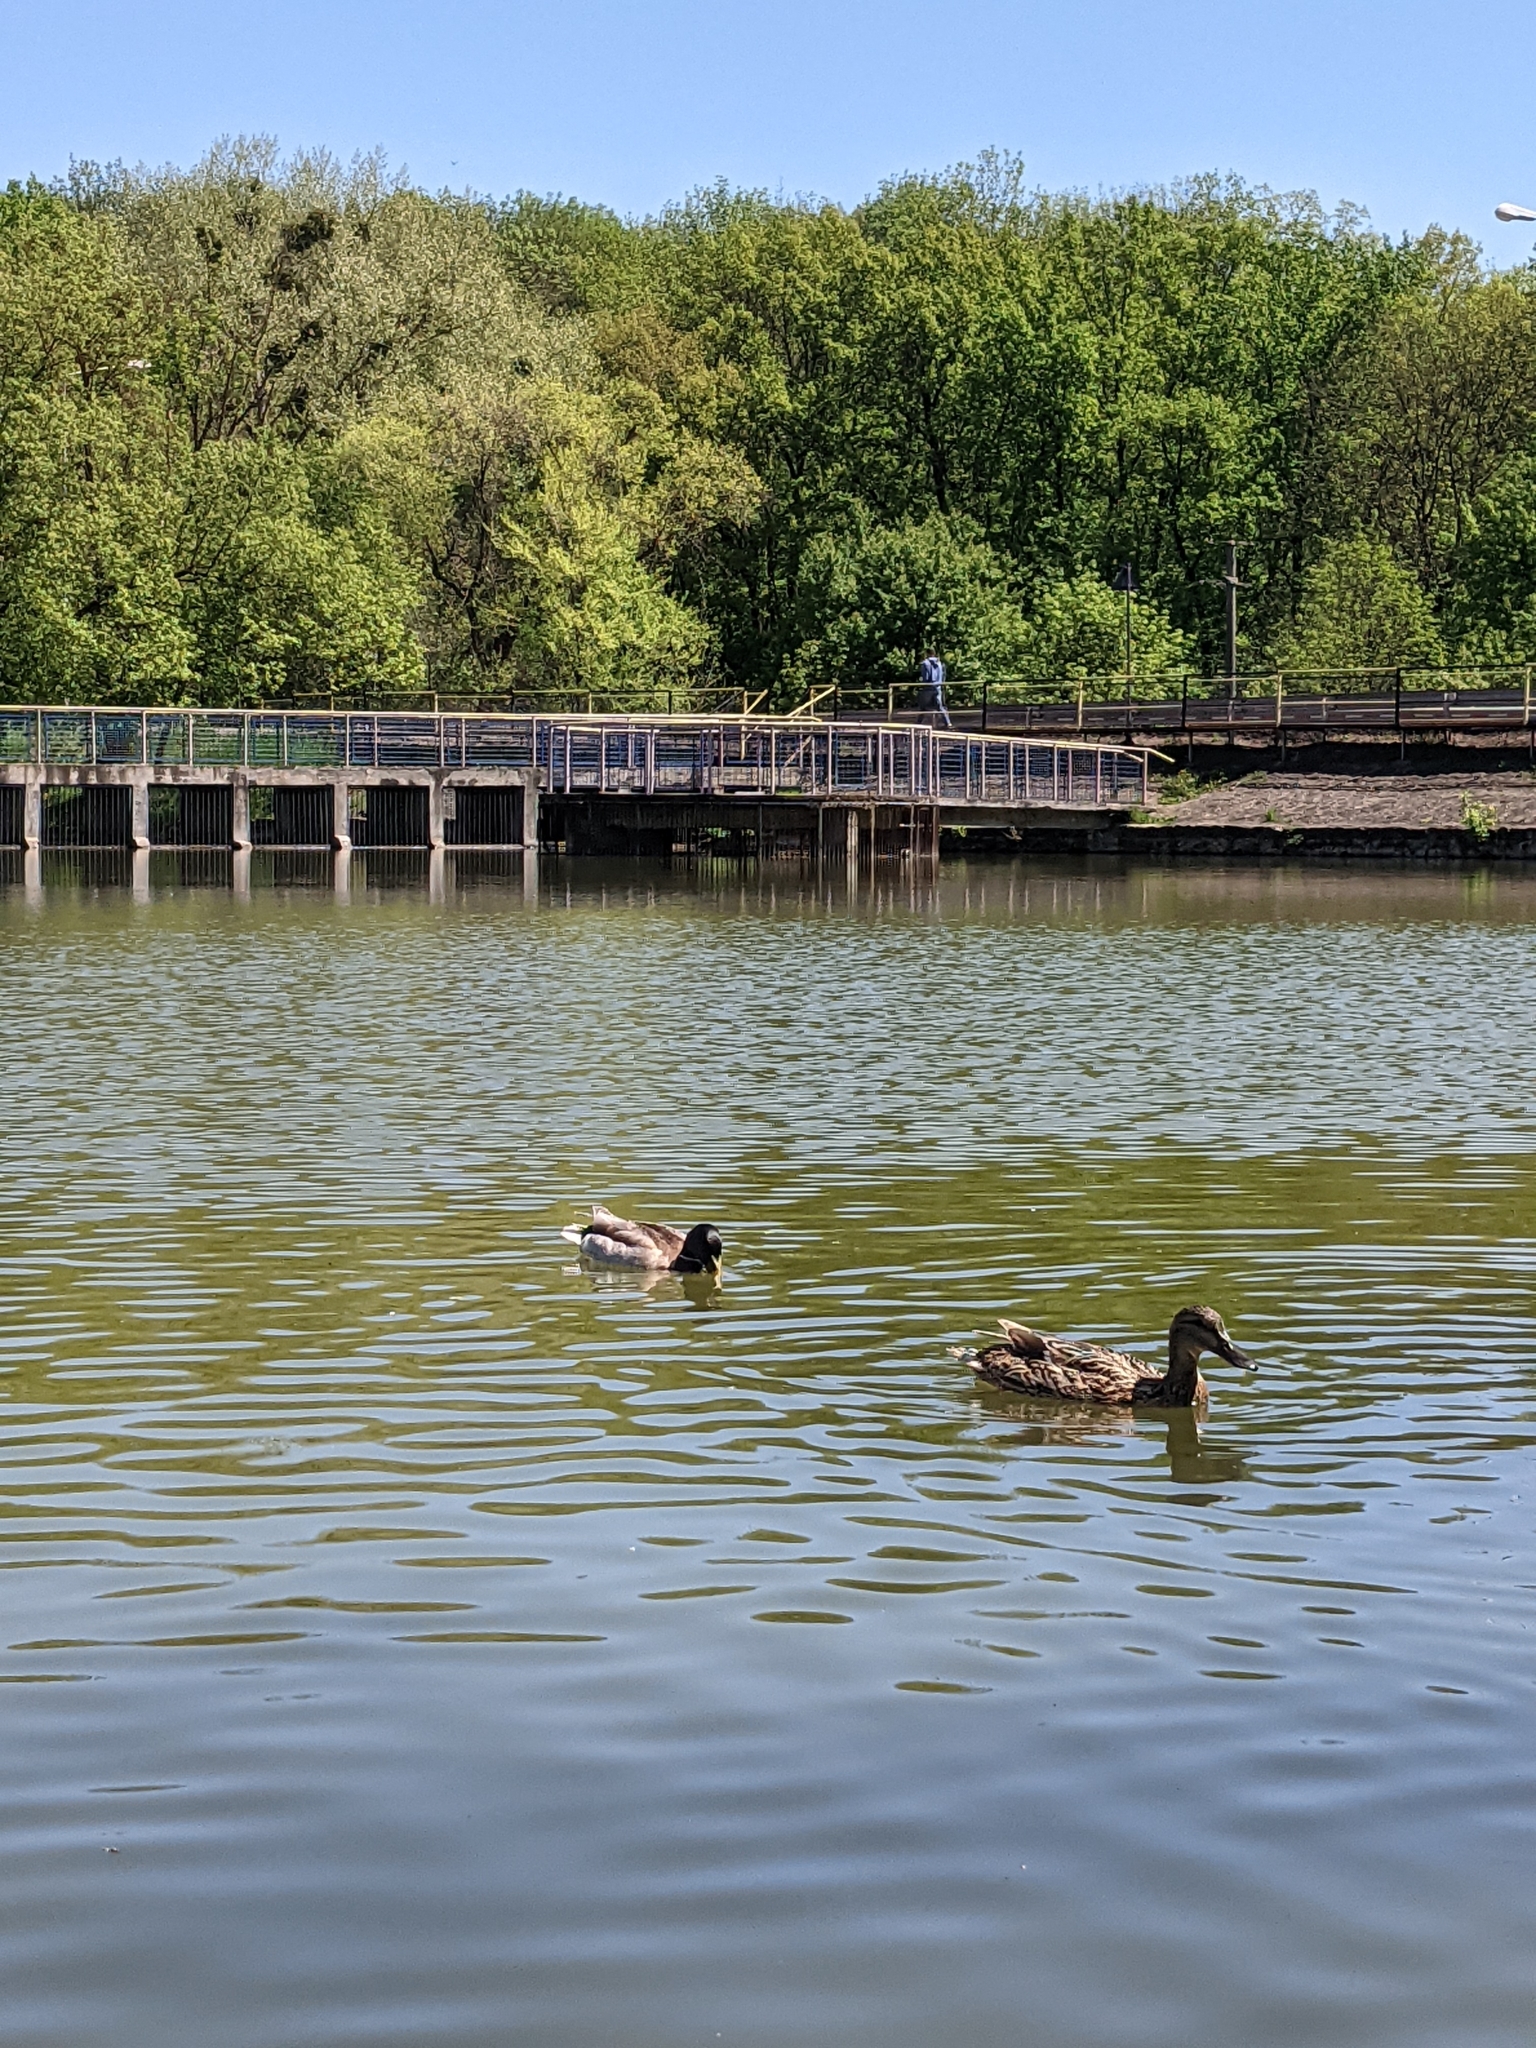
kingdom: Animalia
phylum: Chordata
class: Aves
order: Anseriformes
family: Anatidae
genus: Anas
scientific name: Anas platyrhynchos
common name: Mallard
